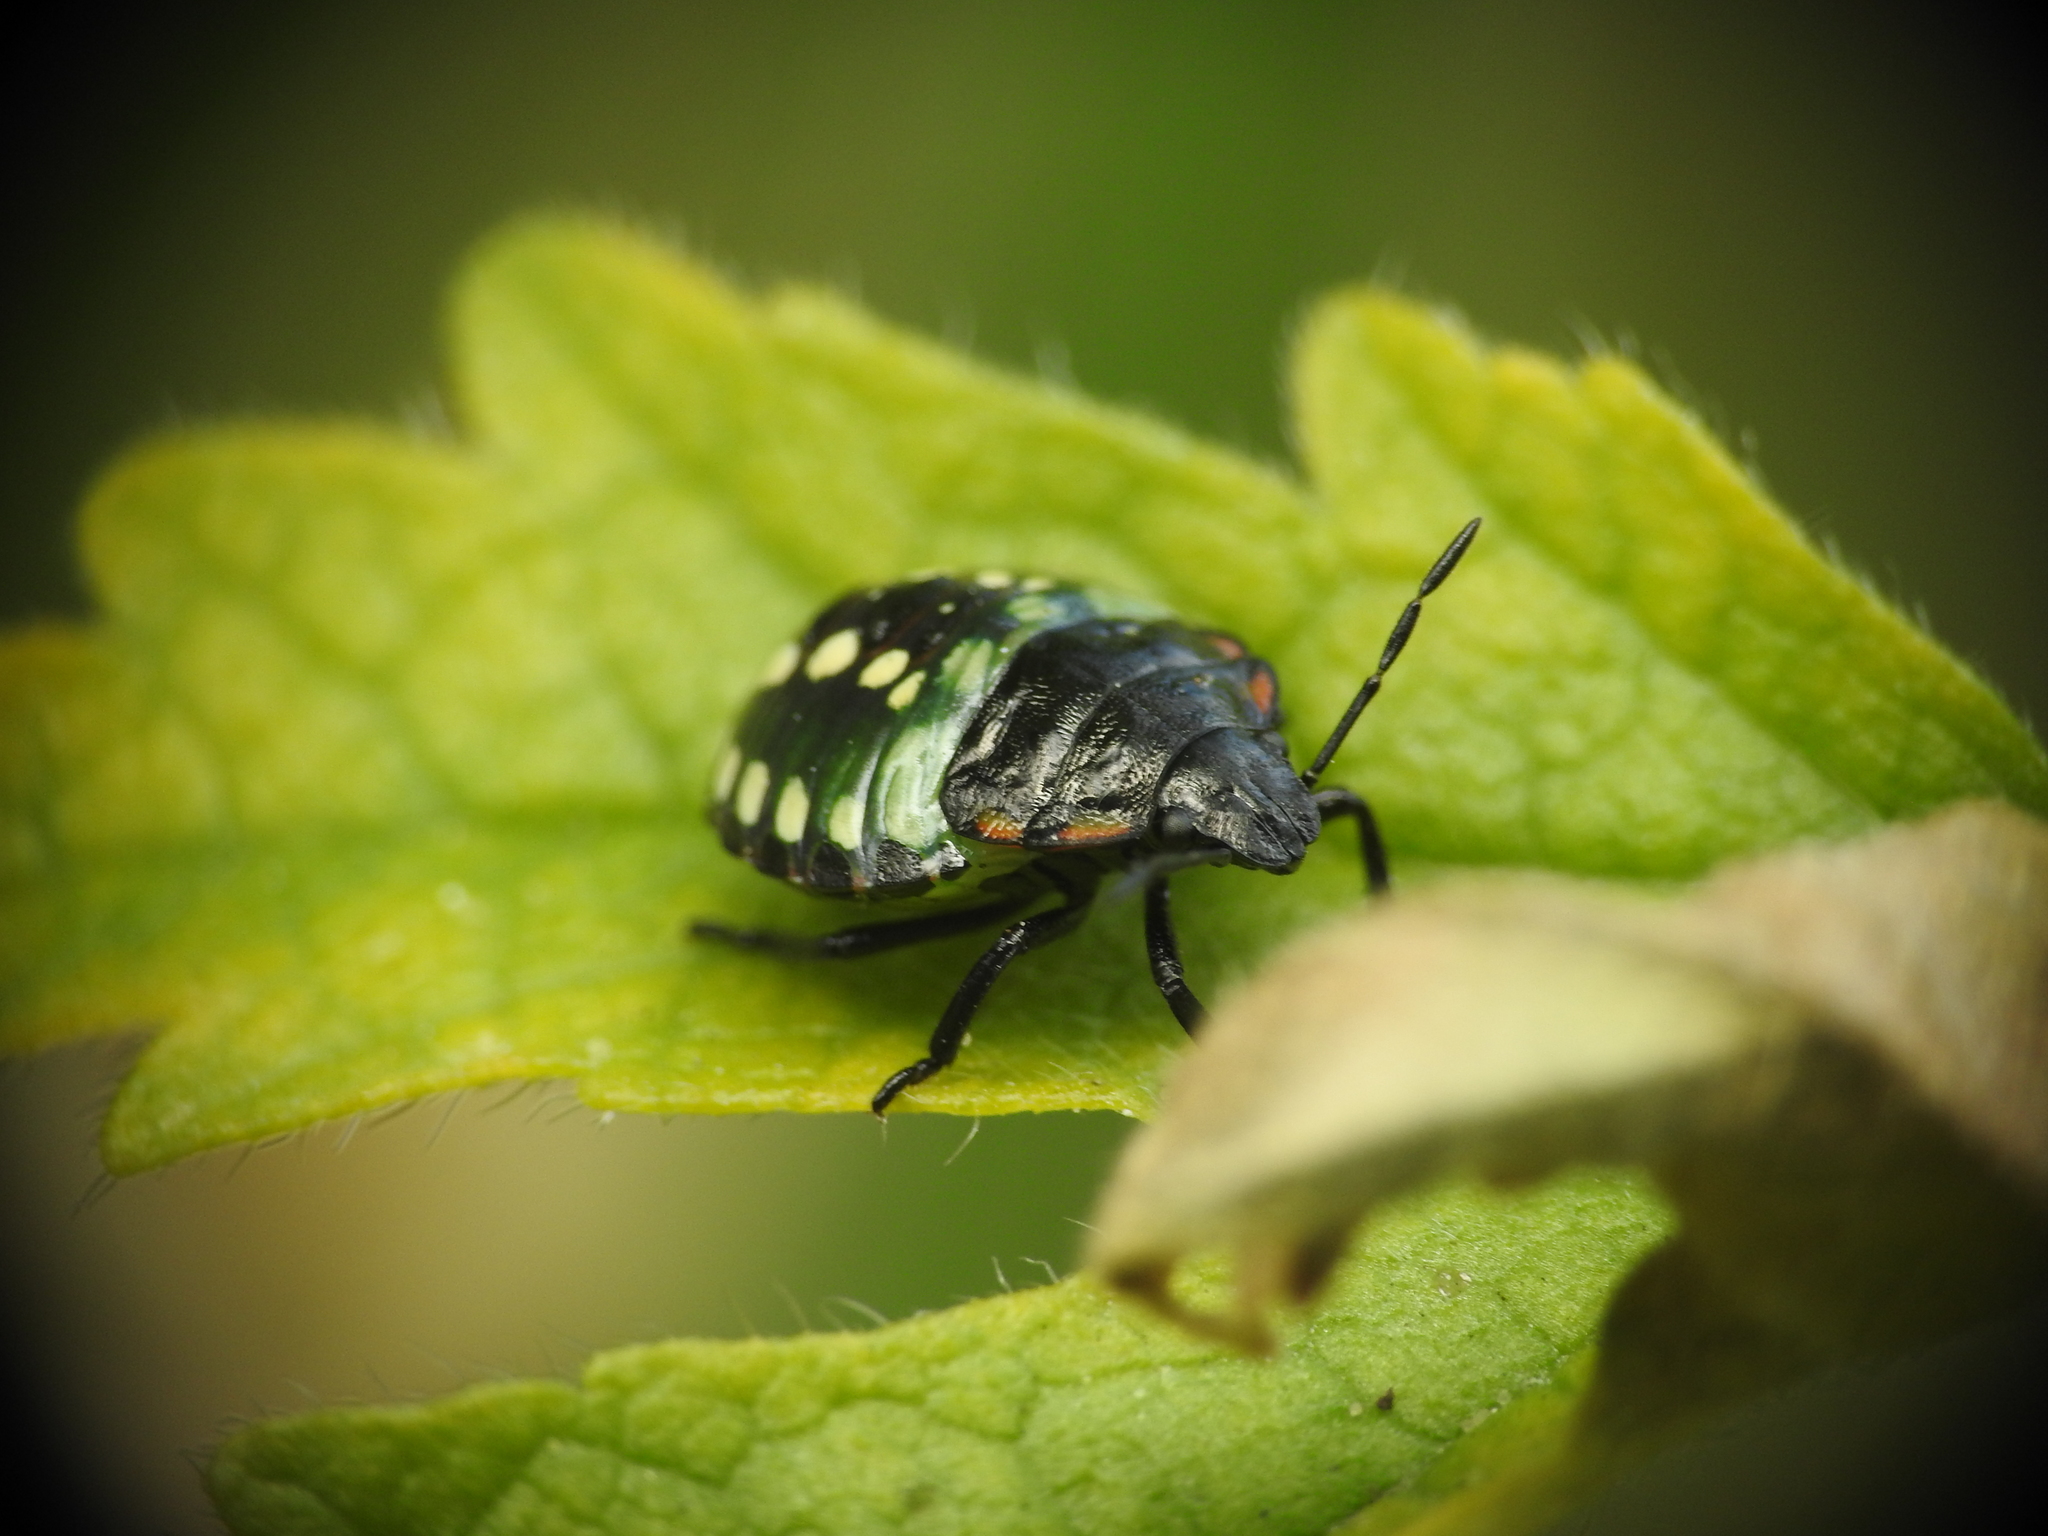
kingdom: Animalia
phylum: Arthropoda
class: Insecta
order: Hemiptera
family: Pentatomidae
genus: Nezara
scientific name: Nezara viridula
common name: Southern green stink bug
